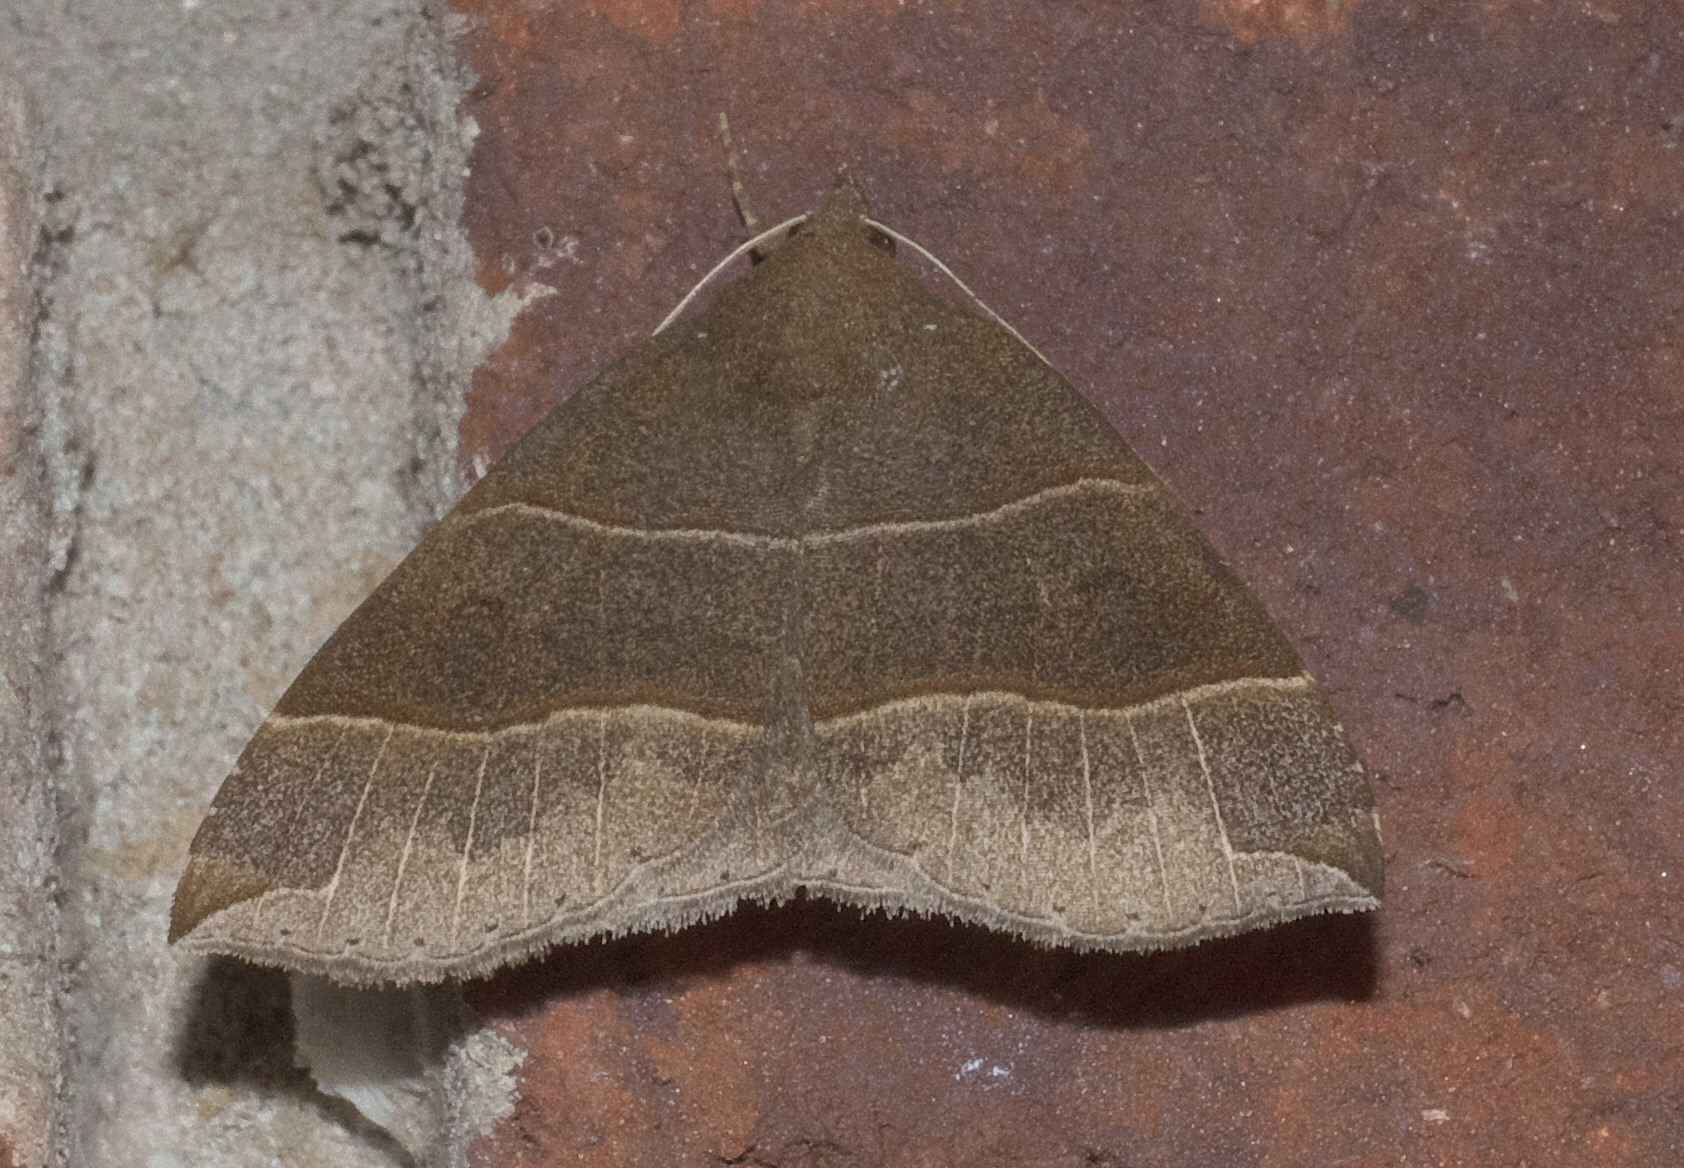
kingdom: Animalia
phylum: Arthropoda
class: Insecta
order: Lepidoptera
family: Erebidae
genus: Parallelia
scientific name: Parallelia bistriaris
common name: Maple looper moth
